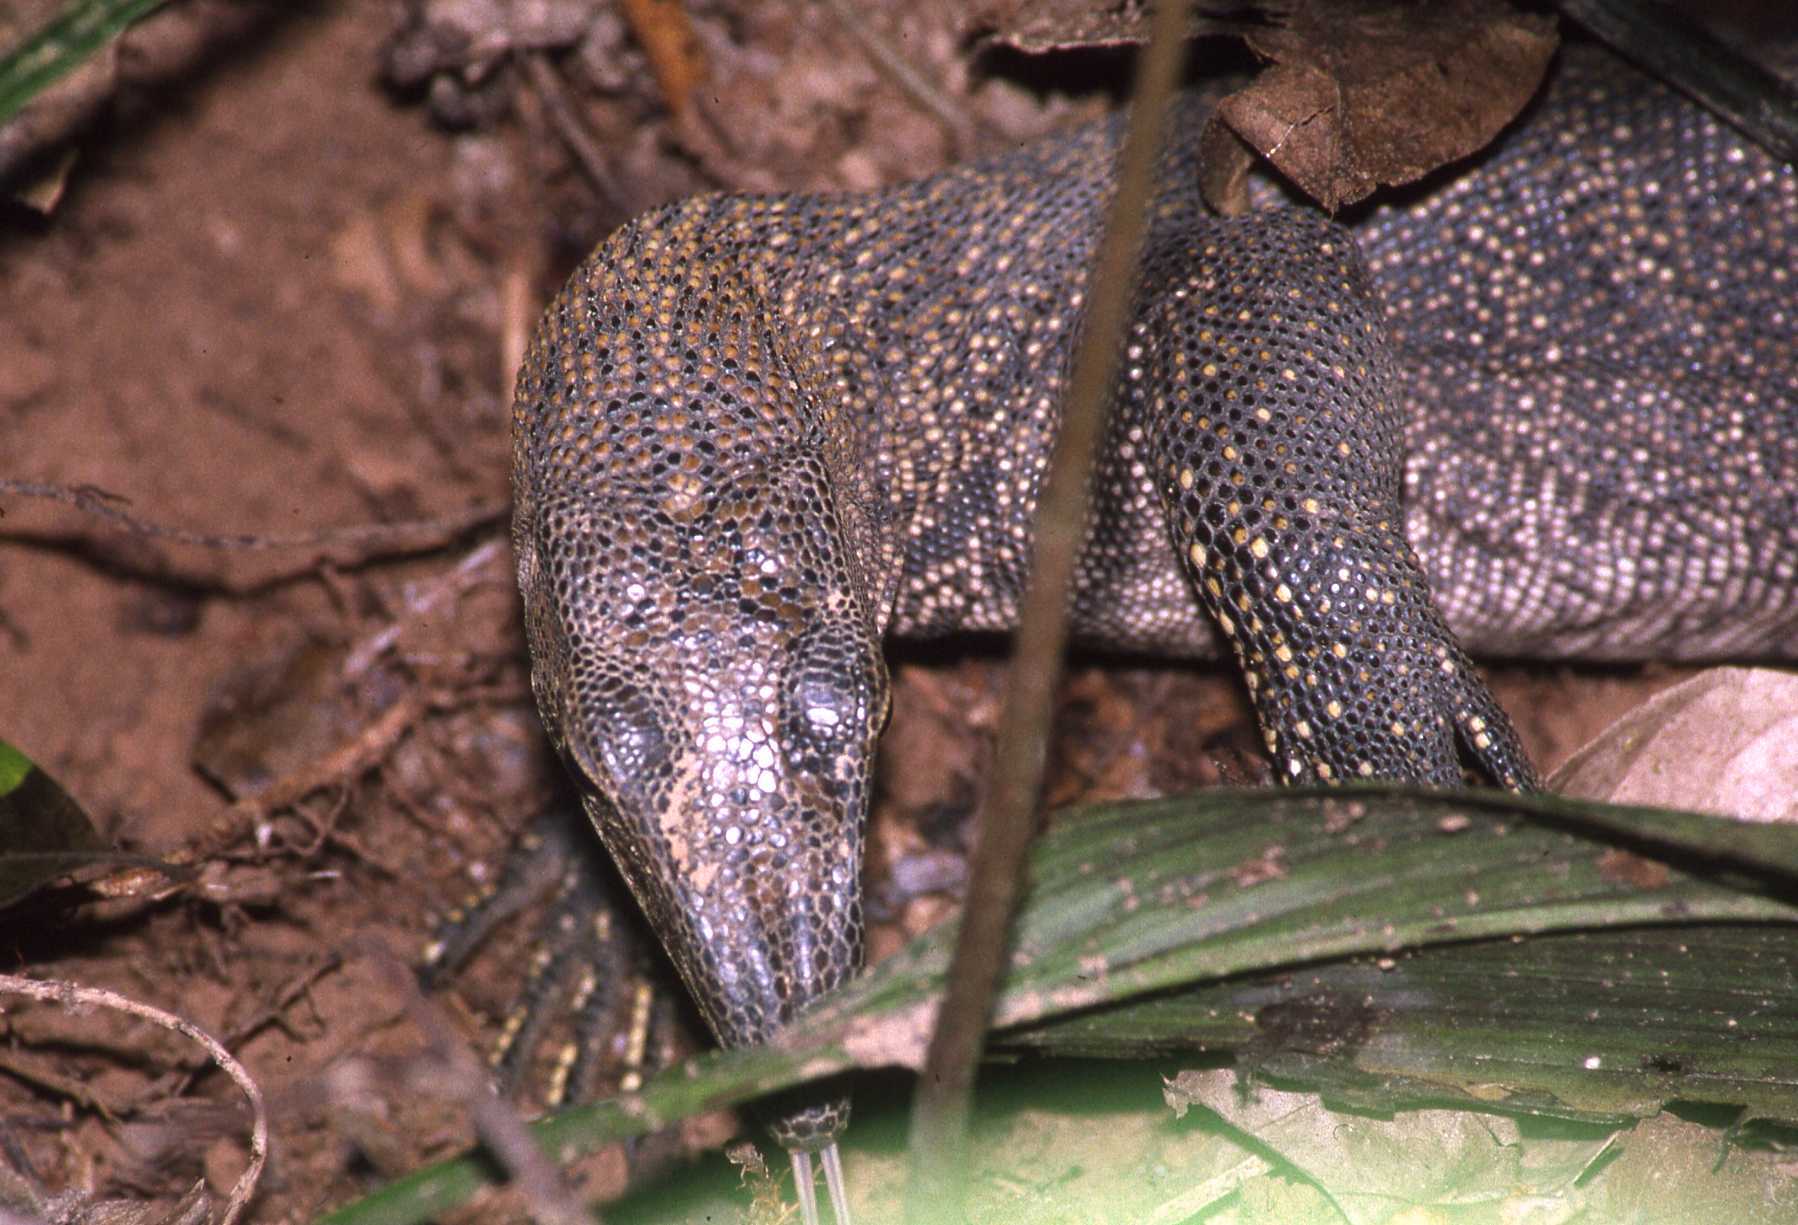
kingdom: Animalia
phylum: Chordata
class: Squamata
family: Varanidae
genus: Varanus
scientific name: Varanus nebulosus
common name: Clouded monitor
